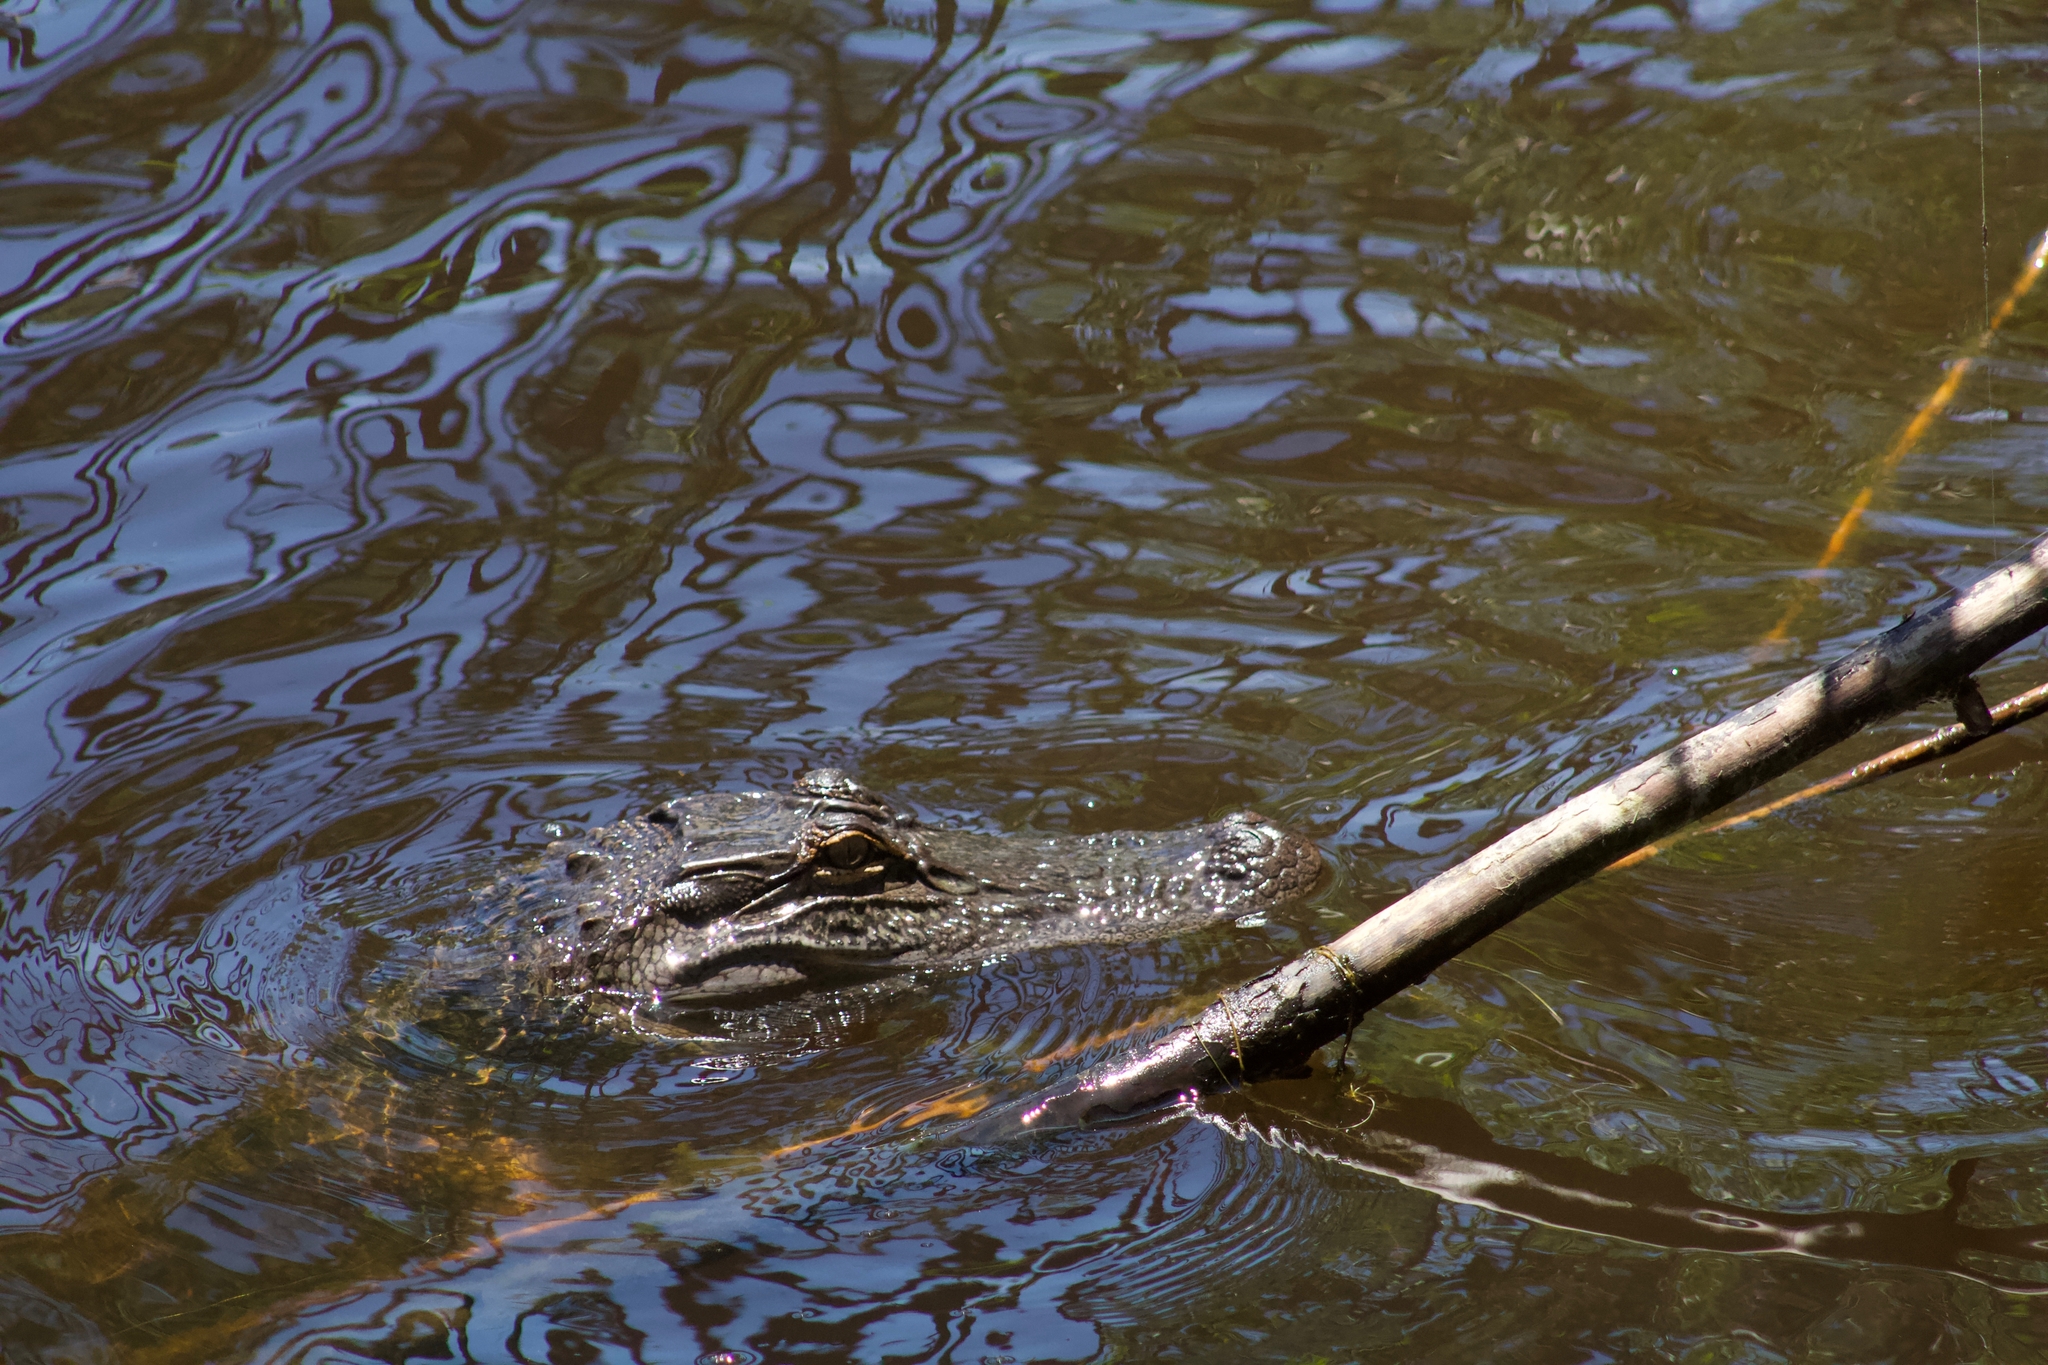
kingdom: Animalia
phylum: Chordata
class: Crocodylia
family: Alligatoridae
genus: Alligator
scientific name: Alligator mississippiensis
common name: American alligator
